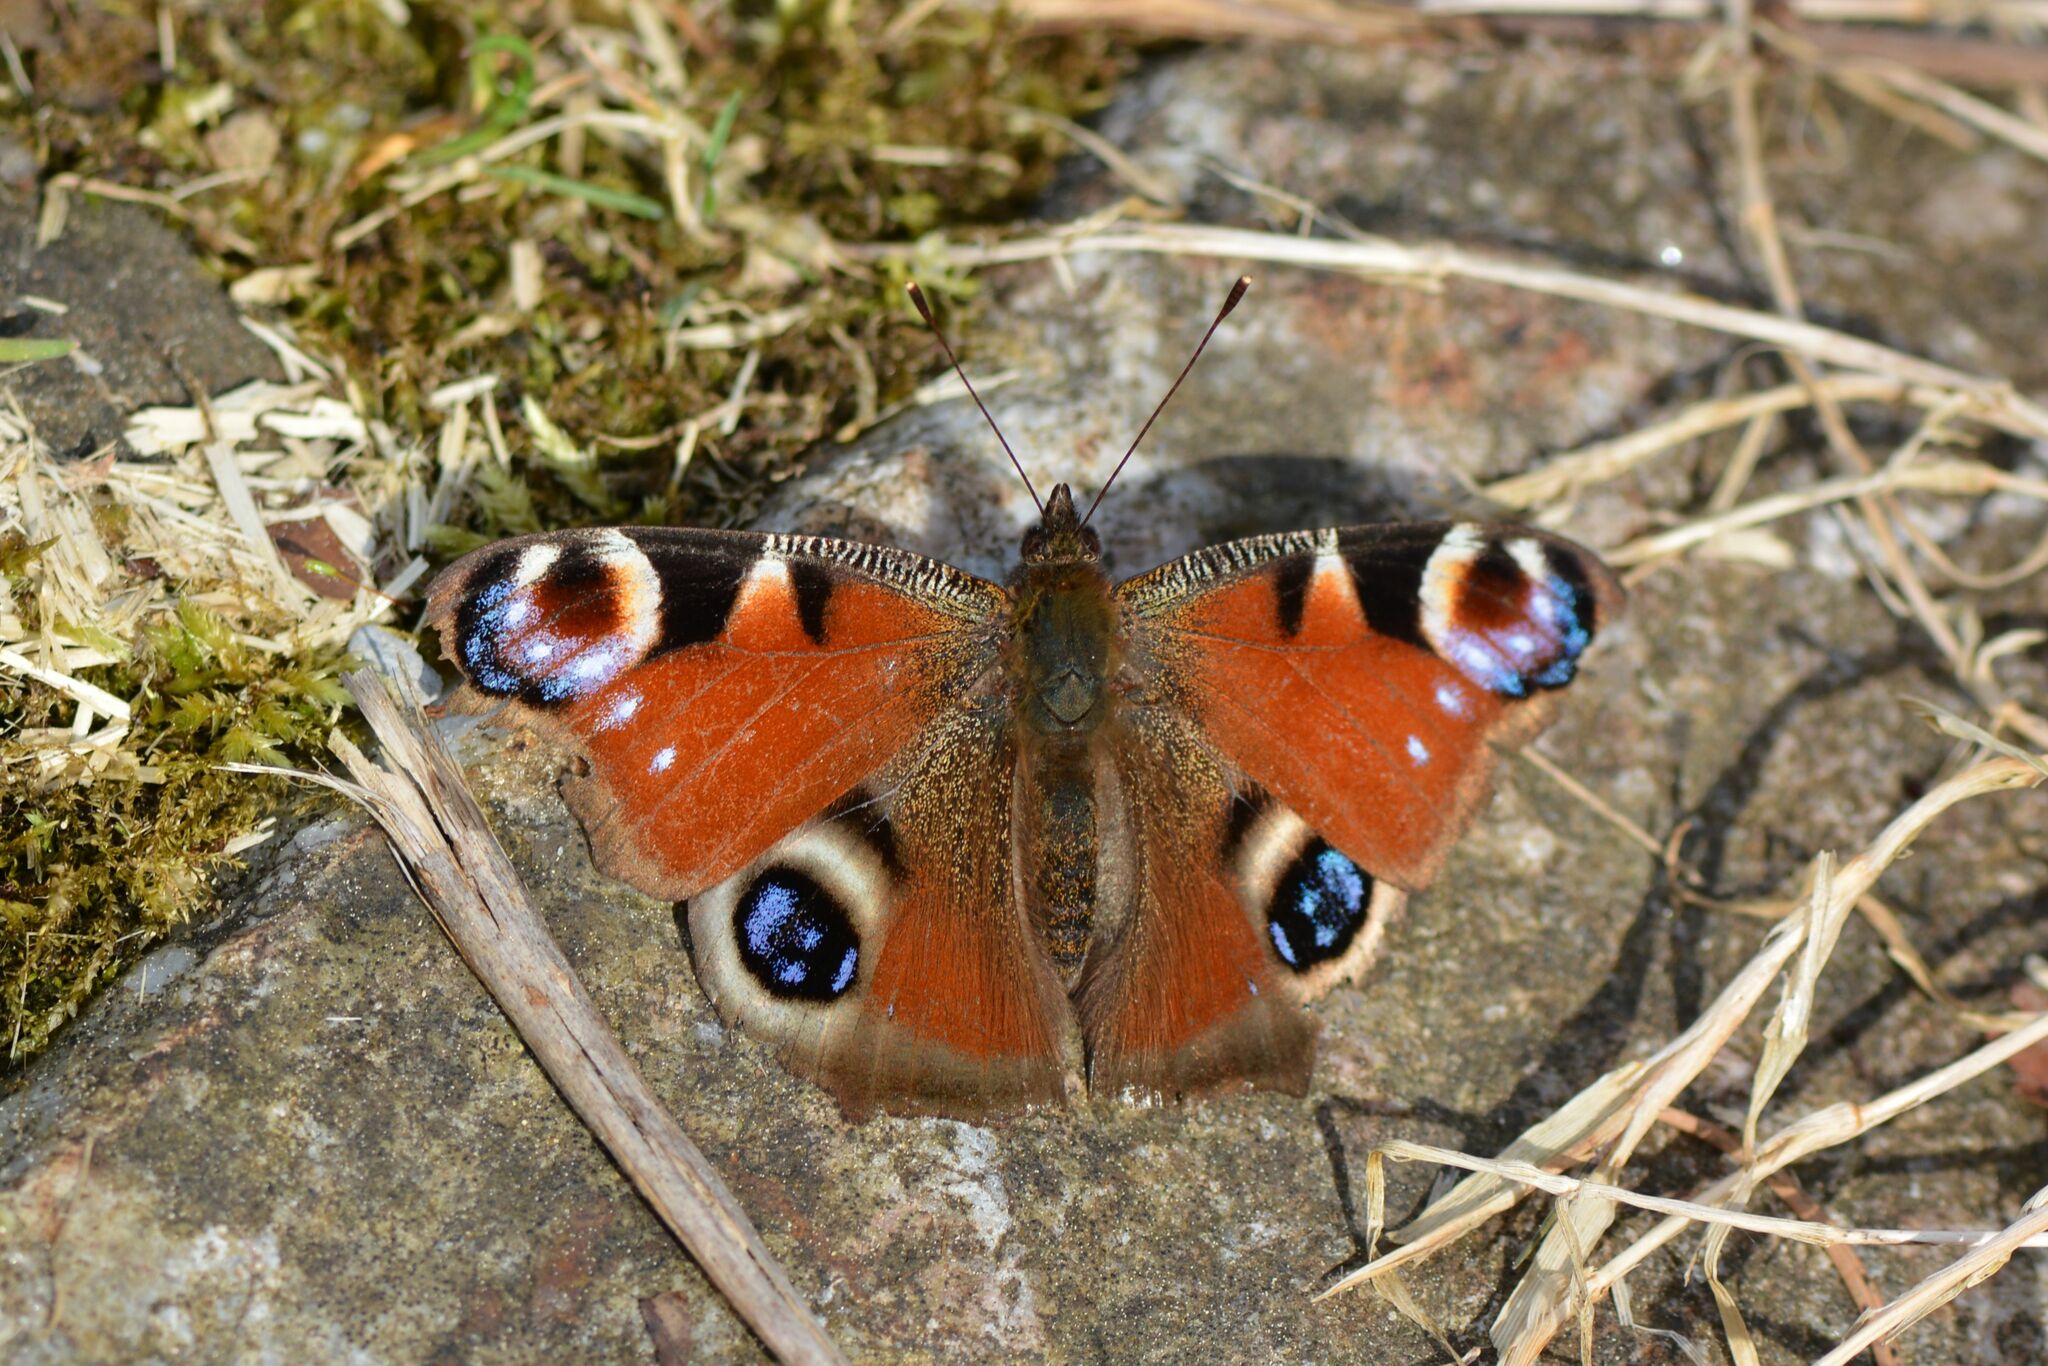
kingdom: Animalia
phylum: Arthropoda
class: Insecta
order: Lepidoptera
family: Nymphalidae
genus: Aglais
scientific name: Aglais io
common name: Peacock
